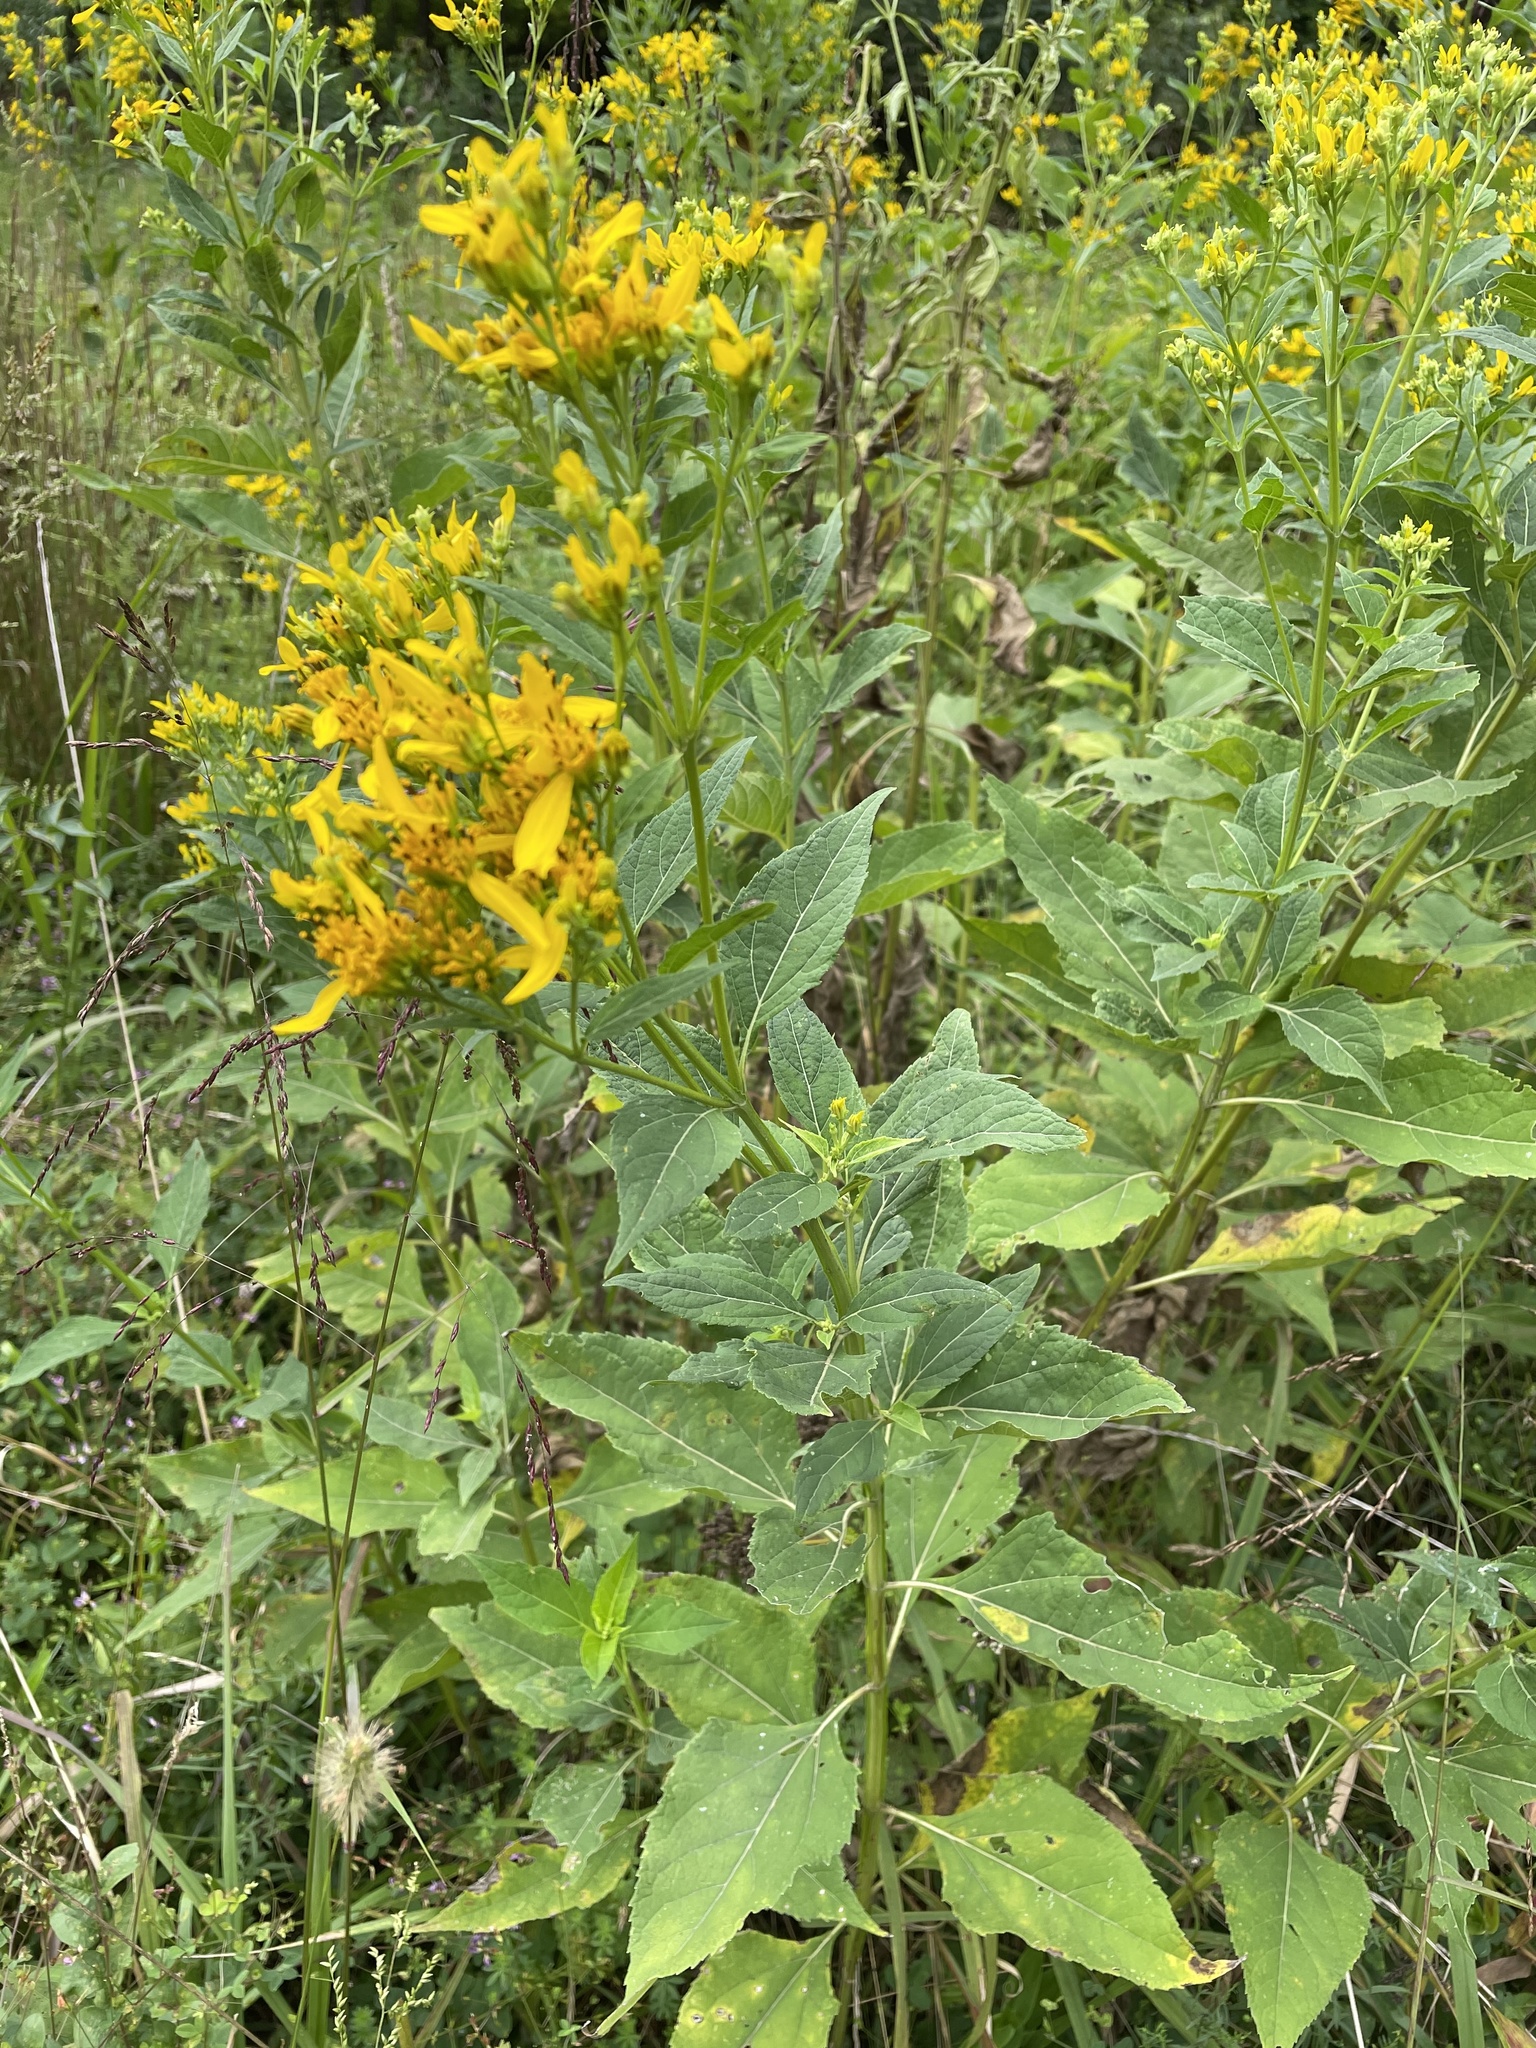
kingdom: Plantae
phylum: Tracheophyta
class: Magnoliopsida
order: Asterales
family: Asteraceae
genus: Verbesina
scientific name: Verbesina occidentalis
